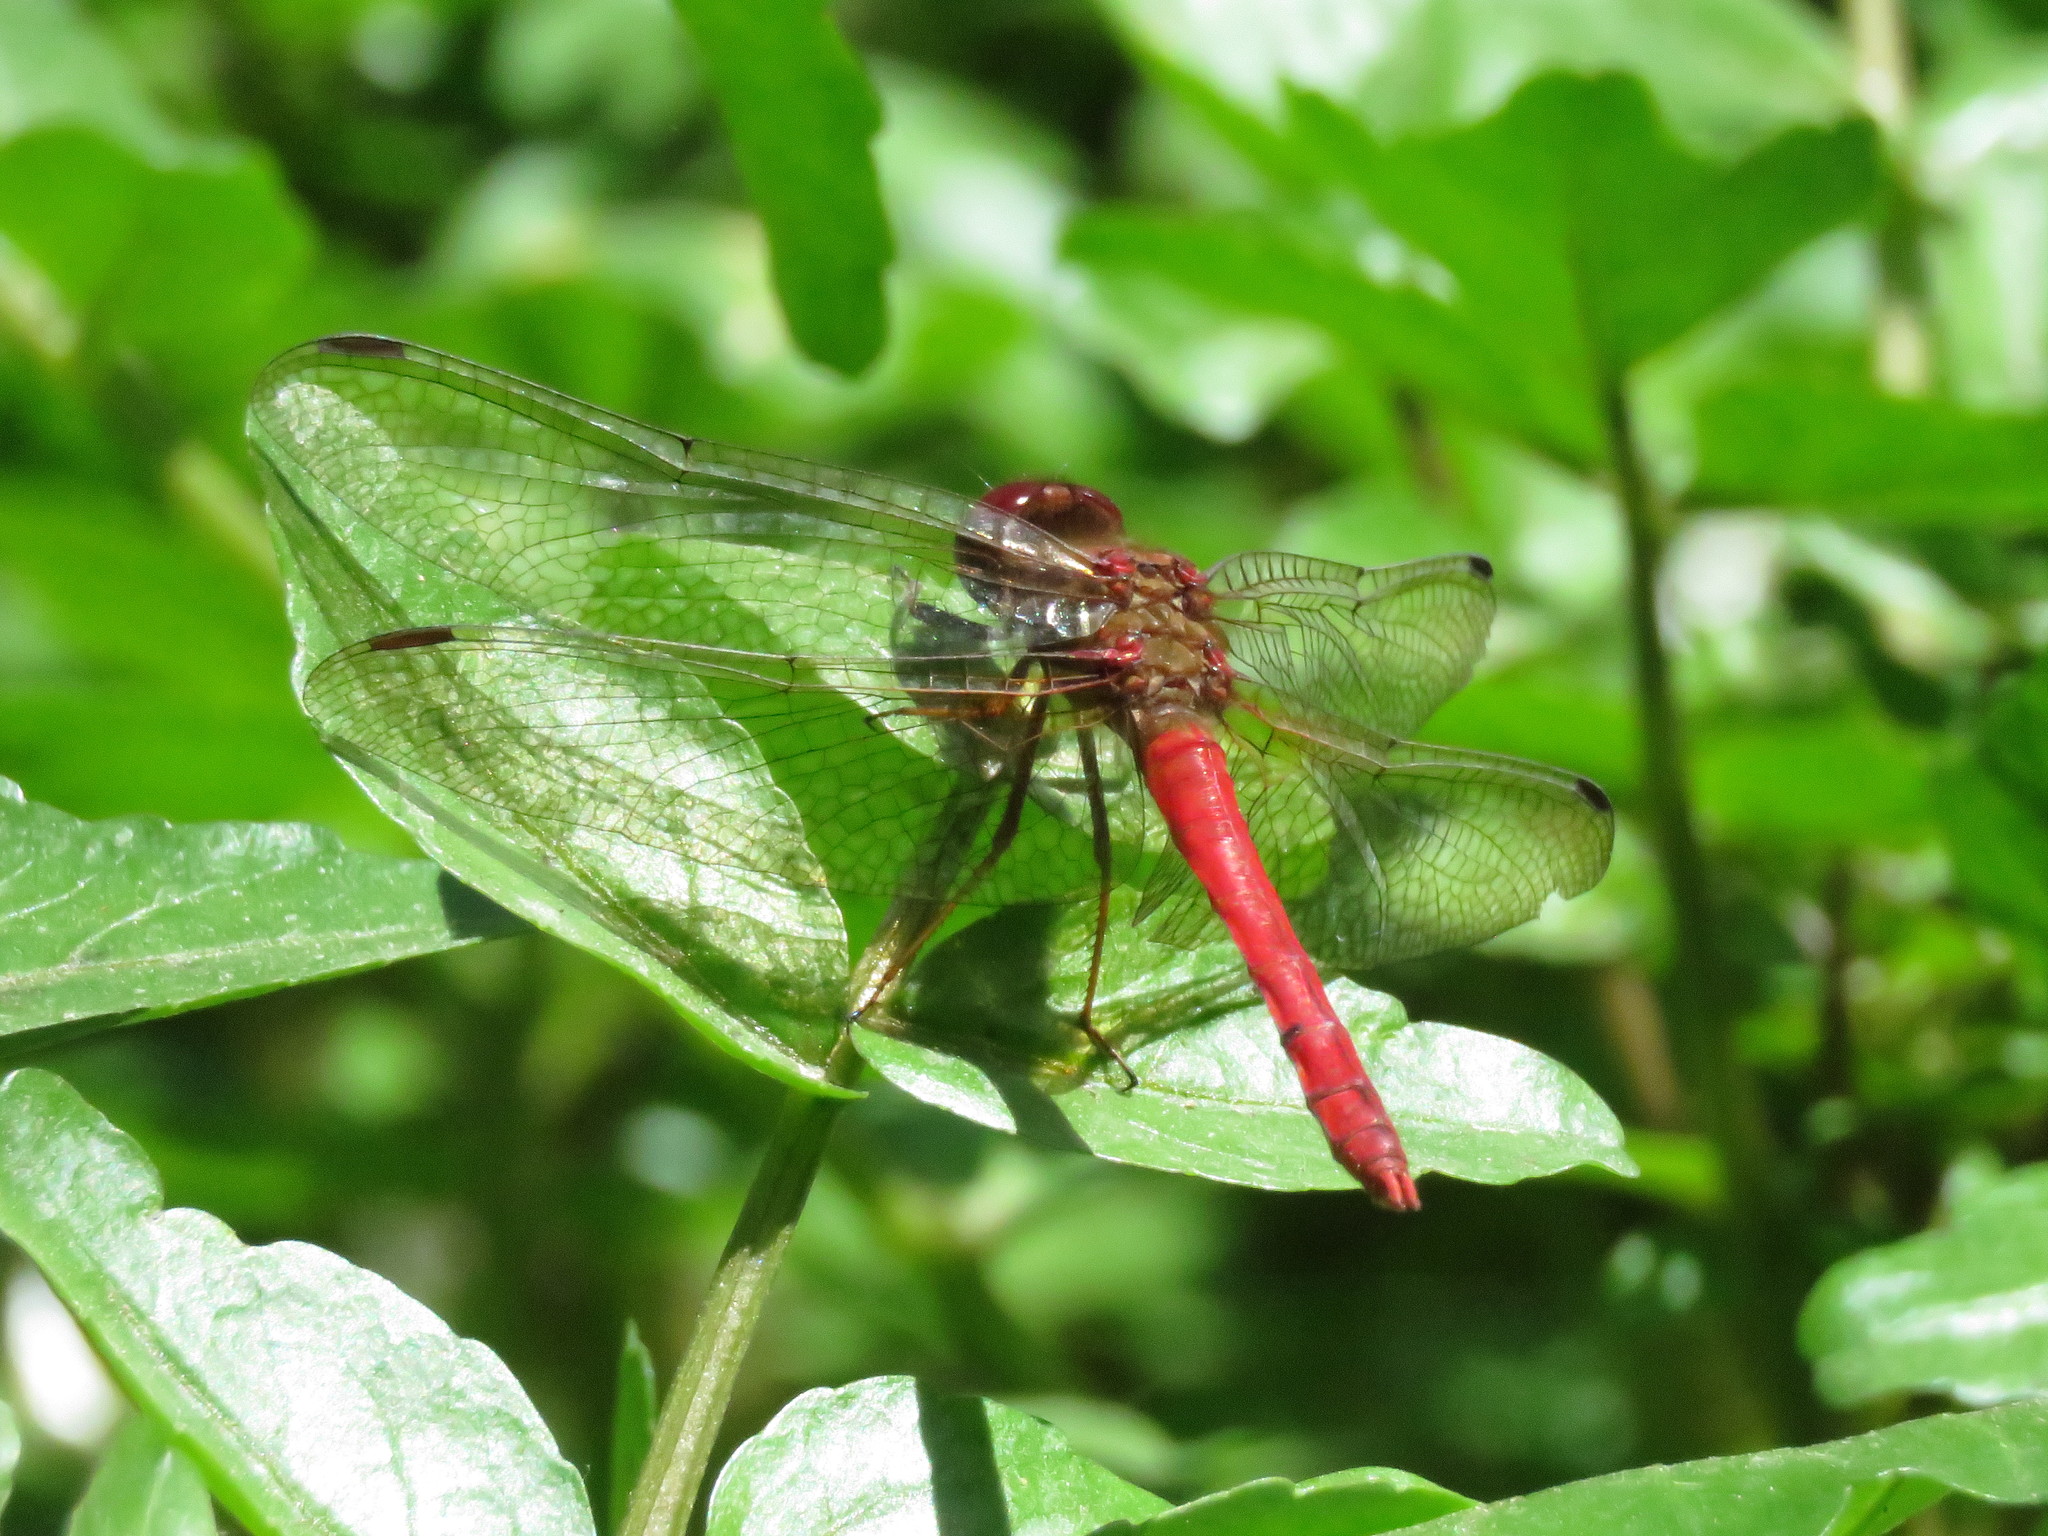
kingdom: Animalia
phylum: Arthropoda
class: Insecta
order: Odonata
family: Libellulidae
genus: Sympetrum
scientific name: Sympetrum gilvum
